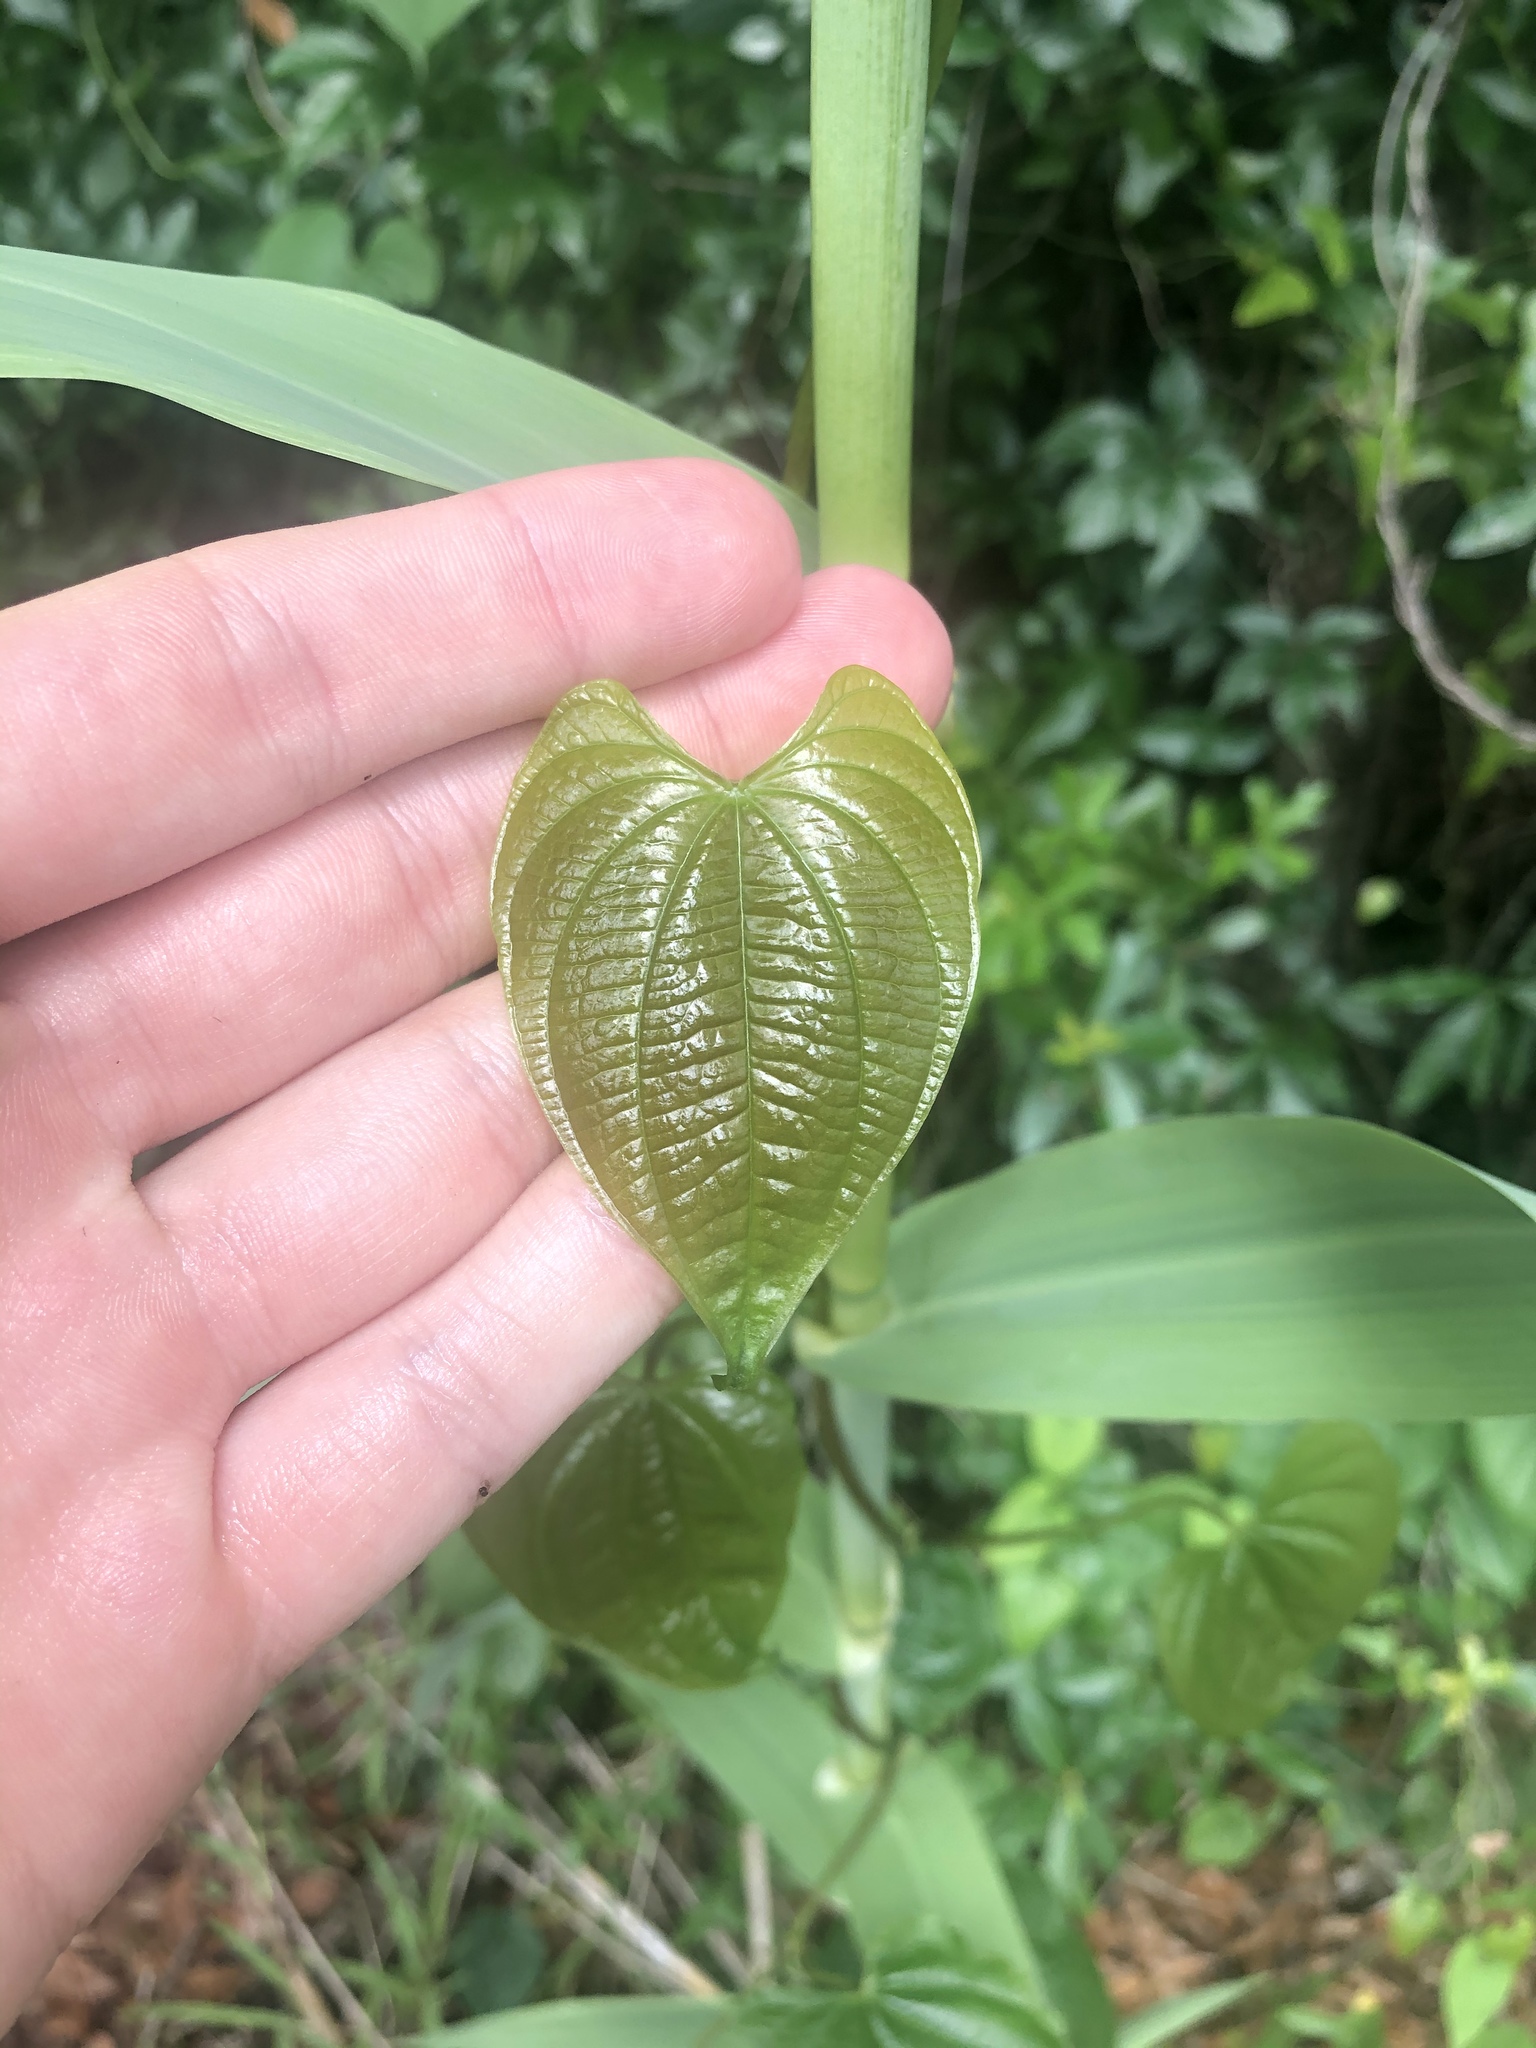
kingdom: Plantae
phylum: Tracheophyta
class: Liliopsida
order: Dioscoreales
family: Dioscoreaceae
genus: Dioscorea
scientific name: Dioscorea bulbifera
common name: Air yam
